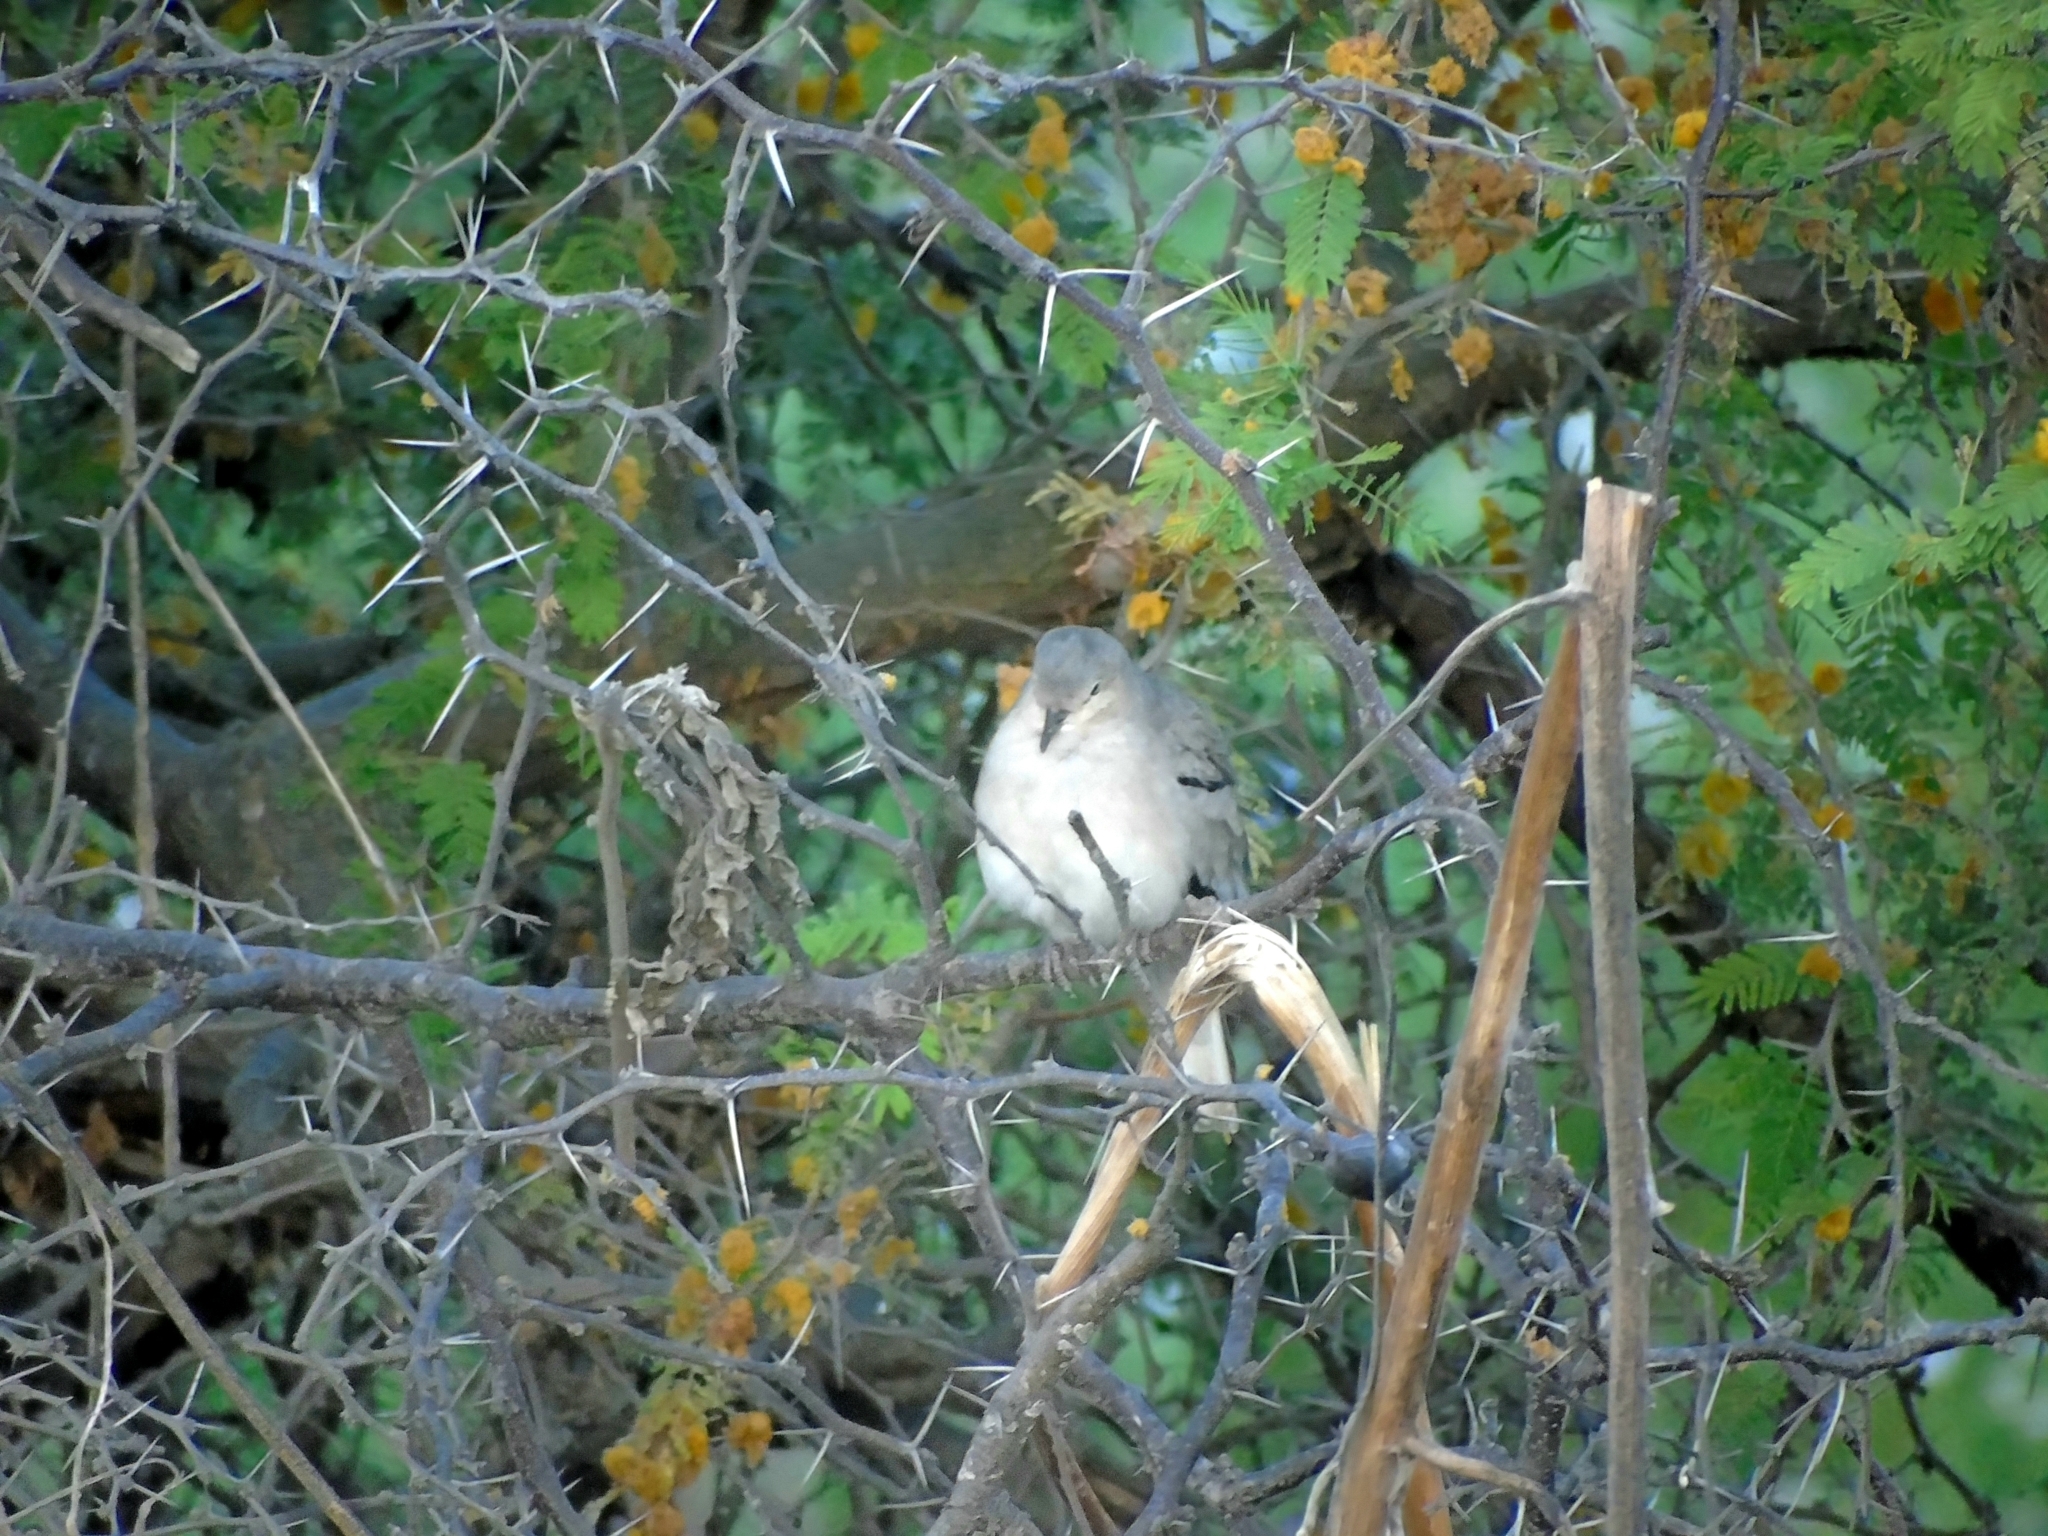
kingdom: Animalia
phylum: Chordata
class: Aves
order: Columbiformes
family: Columbidae
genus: Columbina
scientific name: Columbina picui
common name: Picui ground dove
